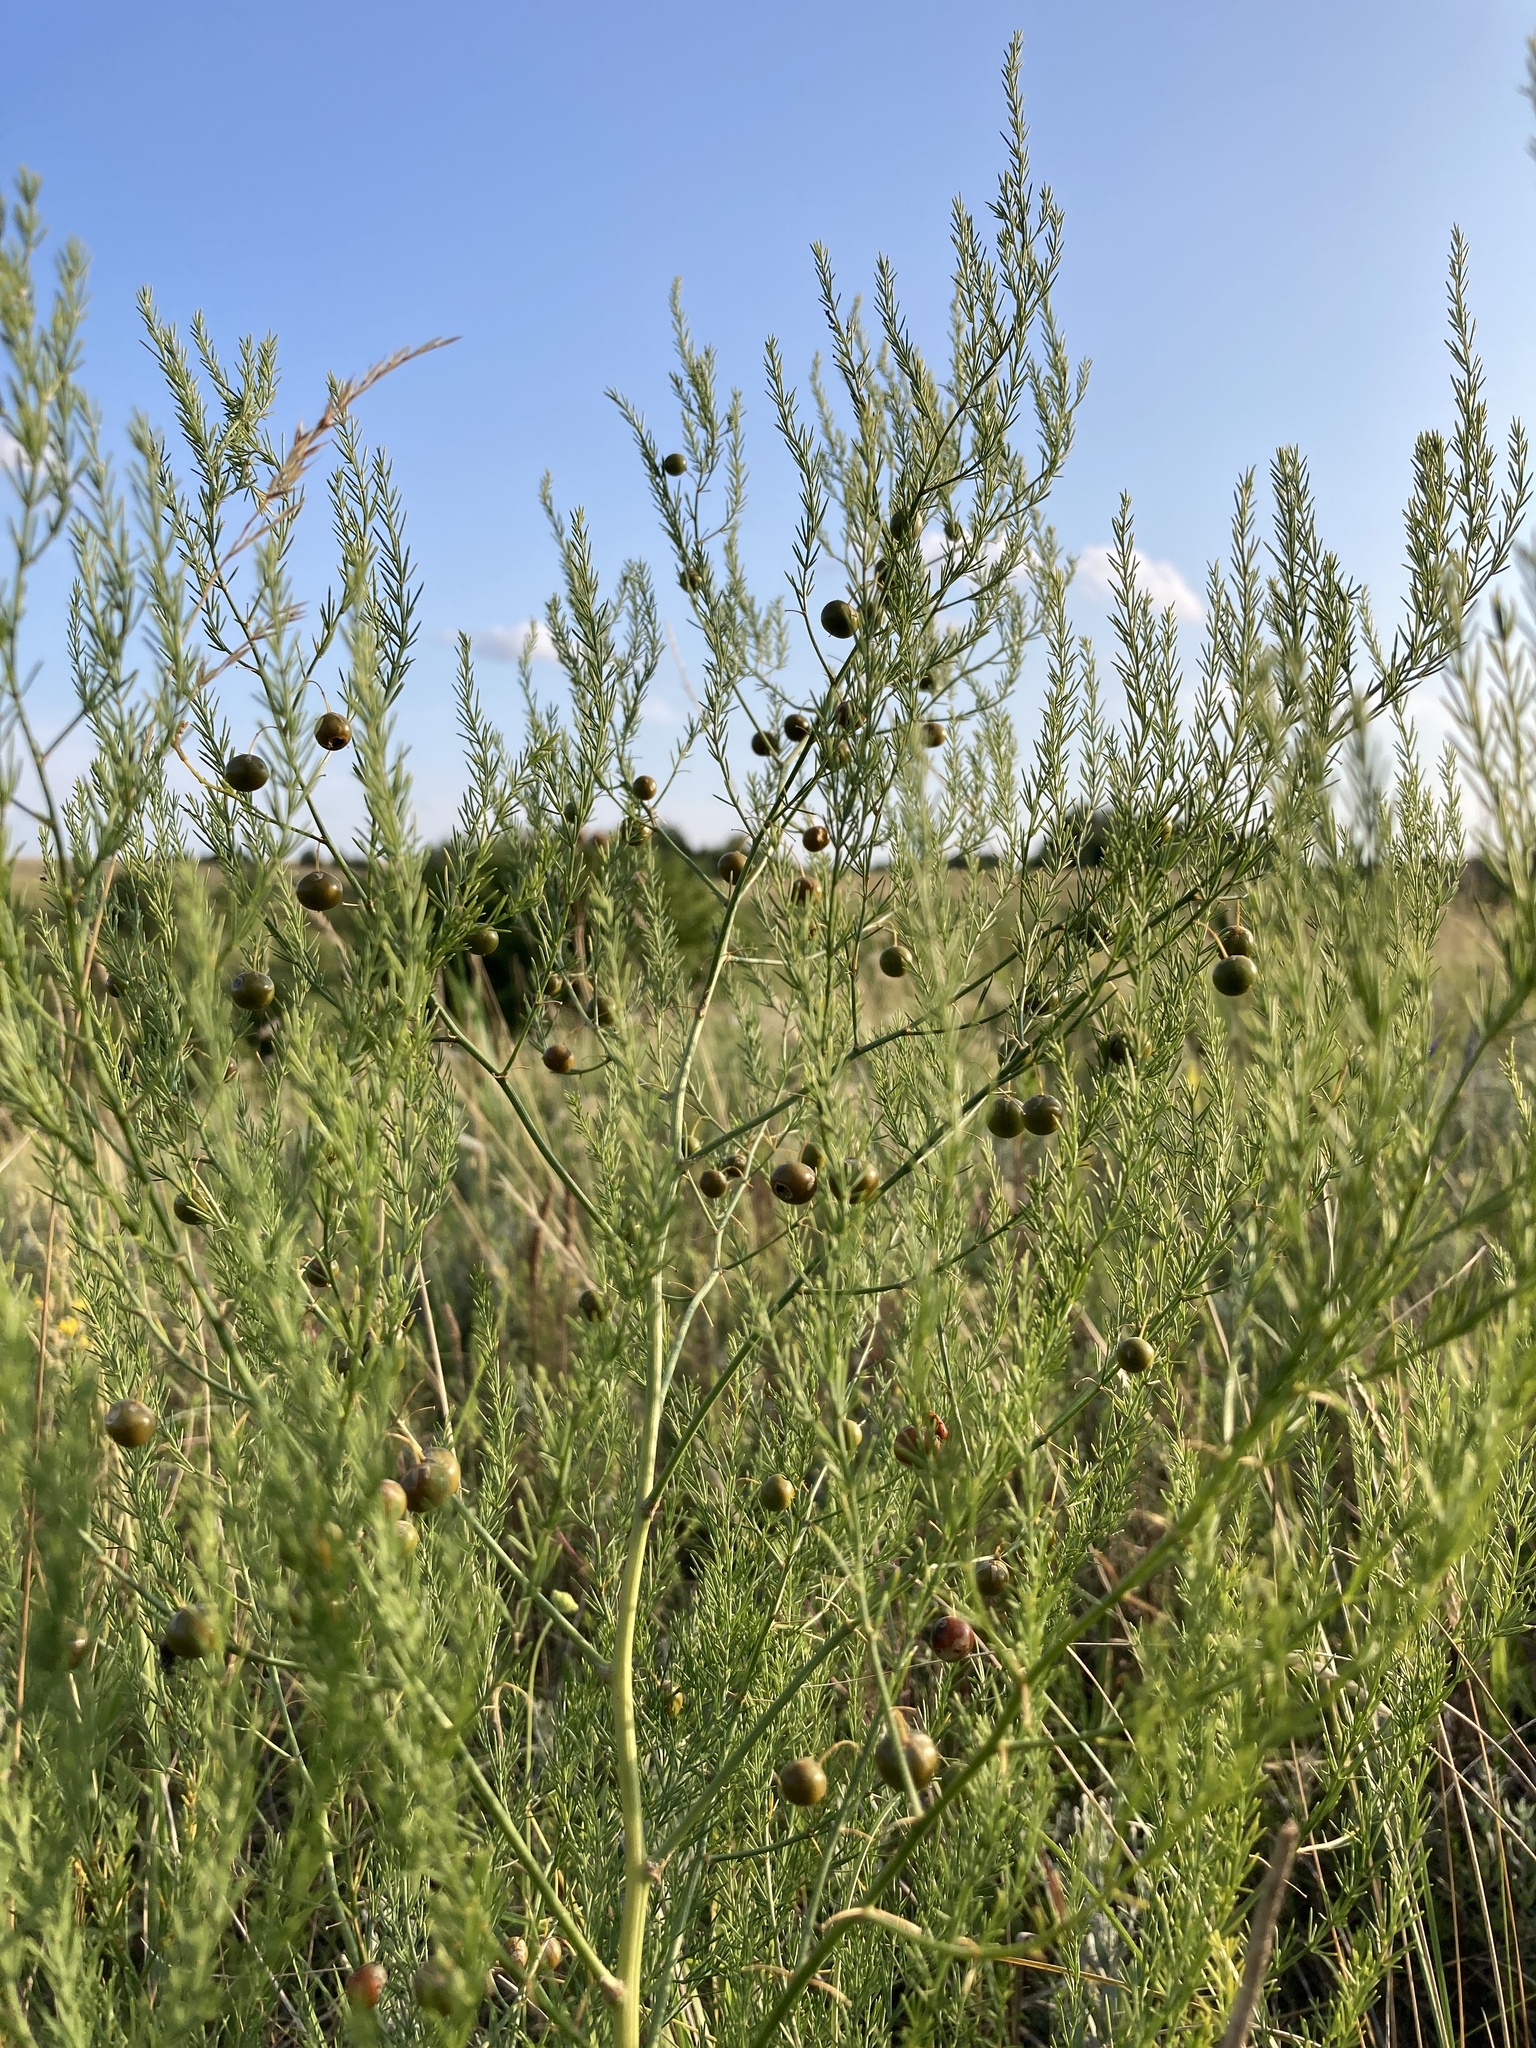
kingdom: Plantae
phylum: Tracheophyta
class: Liliopsida
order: Asparagales
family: Asparagaceae
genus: Asparagus
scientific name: Asparagus officinalis
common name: Garden asparagus
